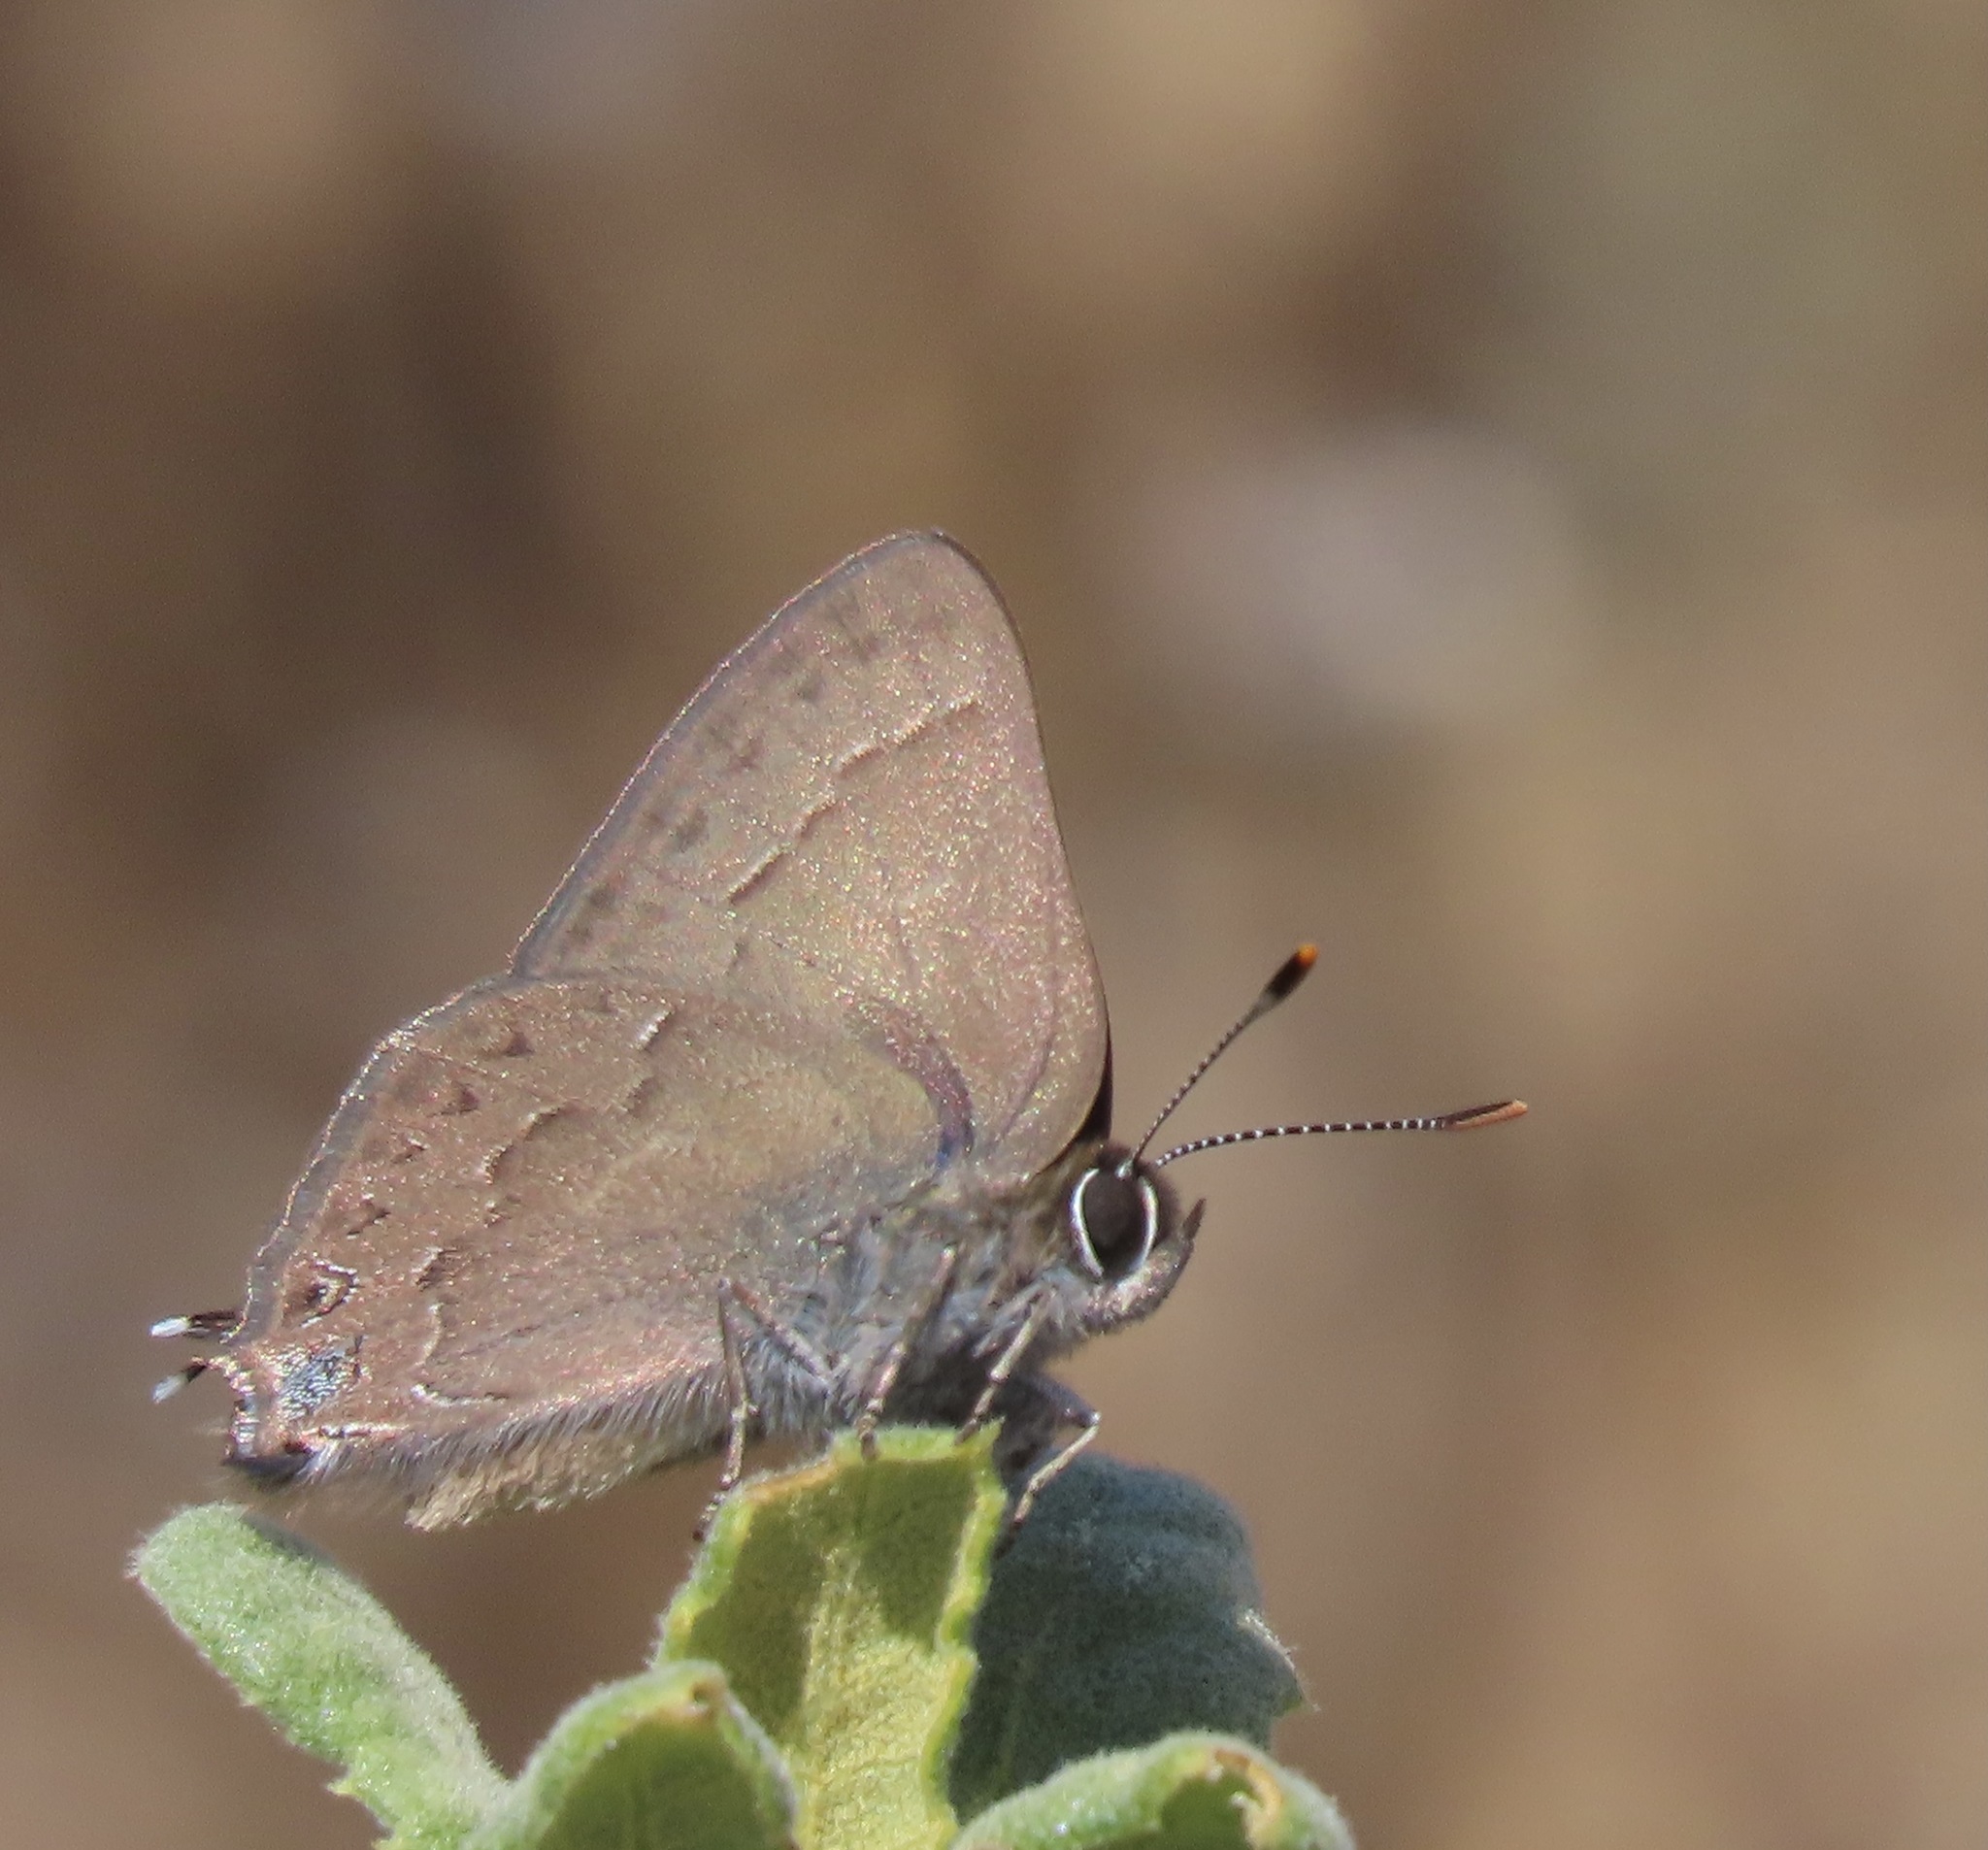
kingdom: Animalia
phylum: Arthropoda
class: Insecta
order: Lepidoptera
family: Lycaenidae
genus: Strymon
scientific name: Strymon saepium
